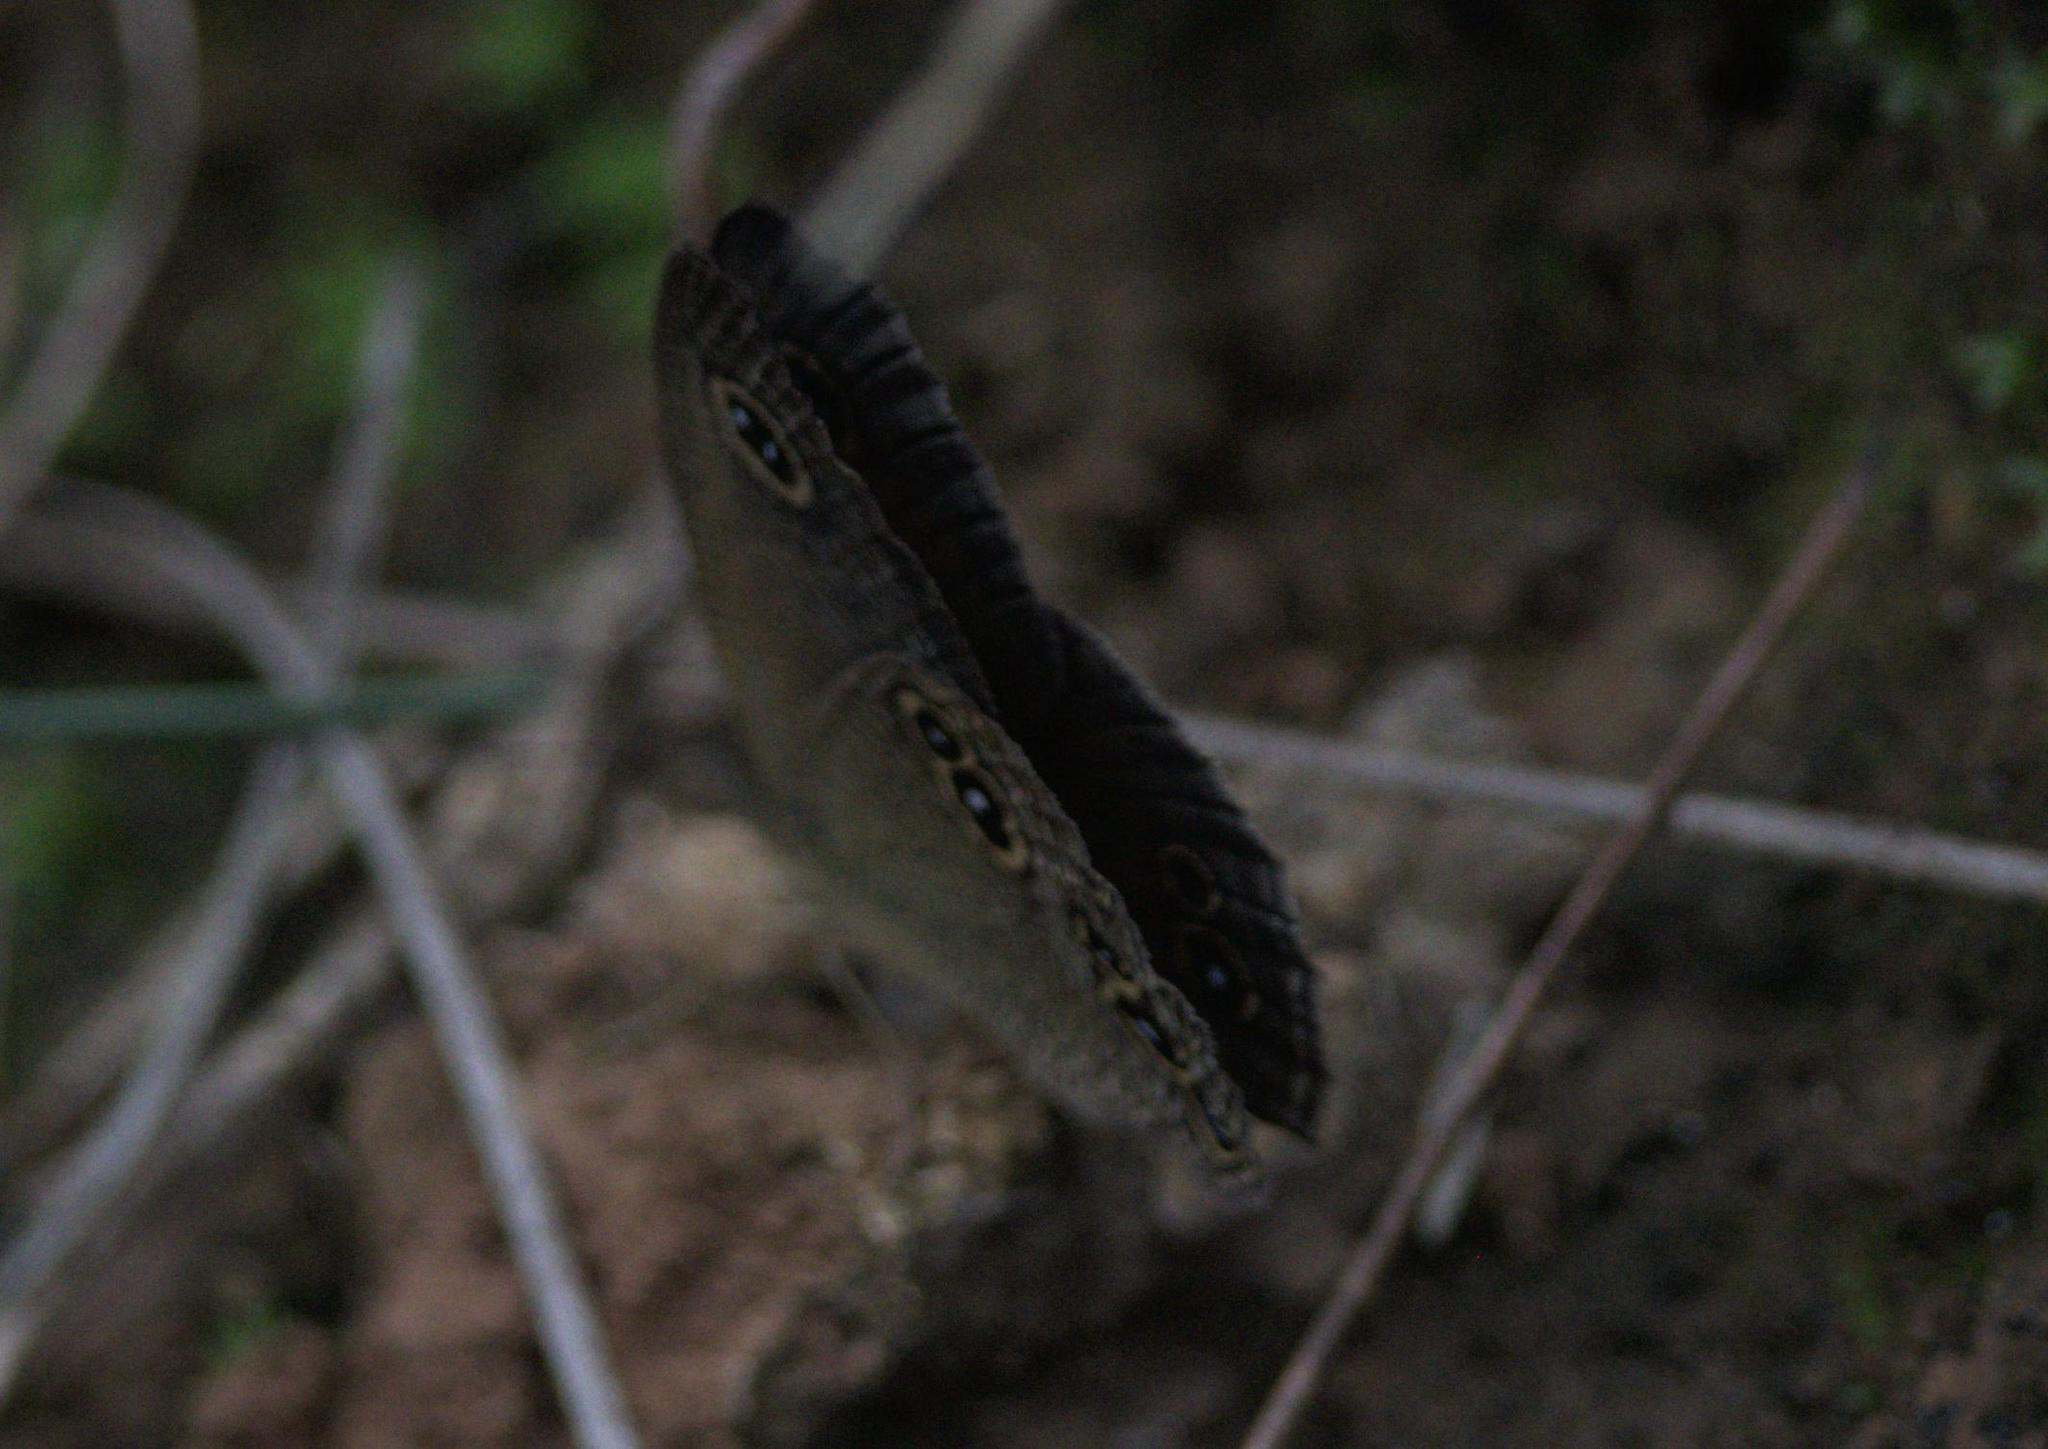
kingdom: Animalia
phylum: Arthropoda
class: Insecta
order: Lepidoptera
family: Nymphalidae
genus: Ypthima
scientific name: Ypthima nikaea
